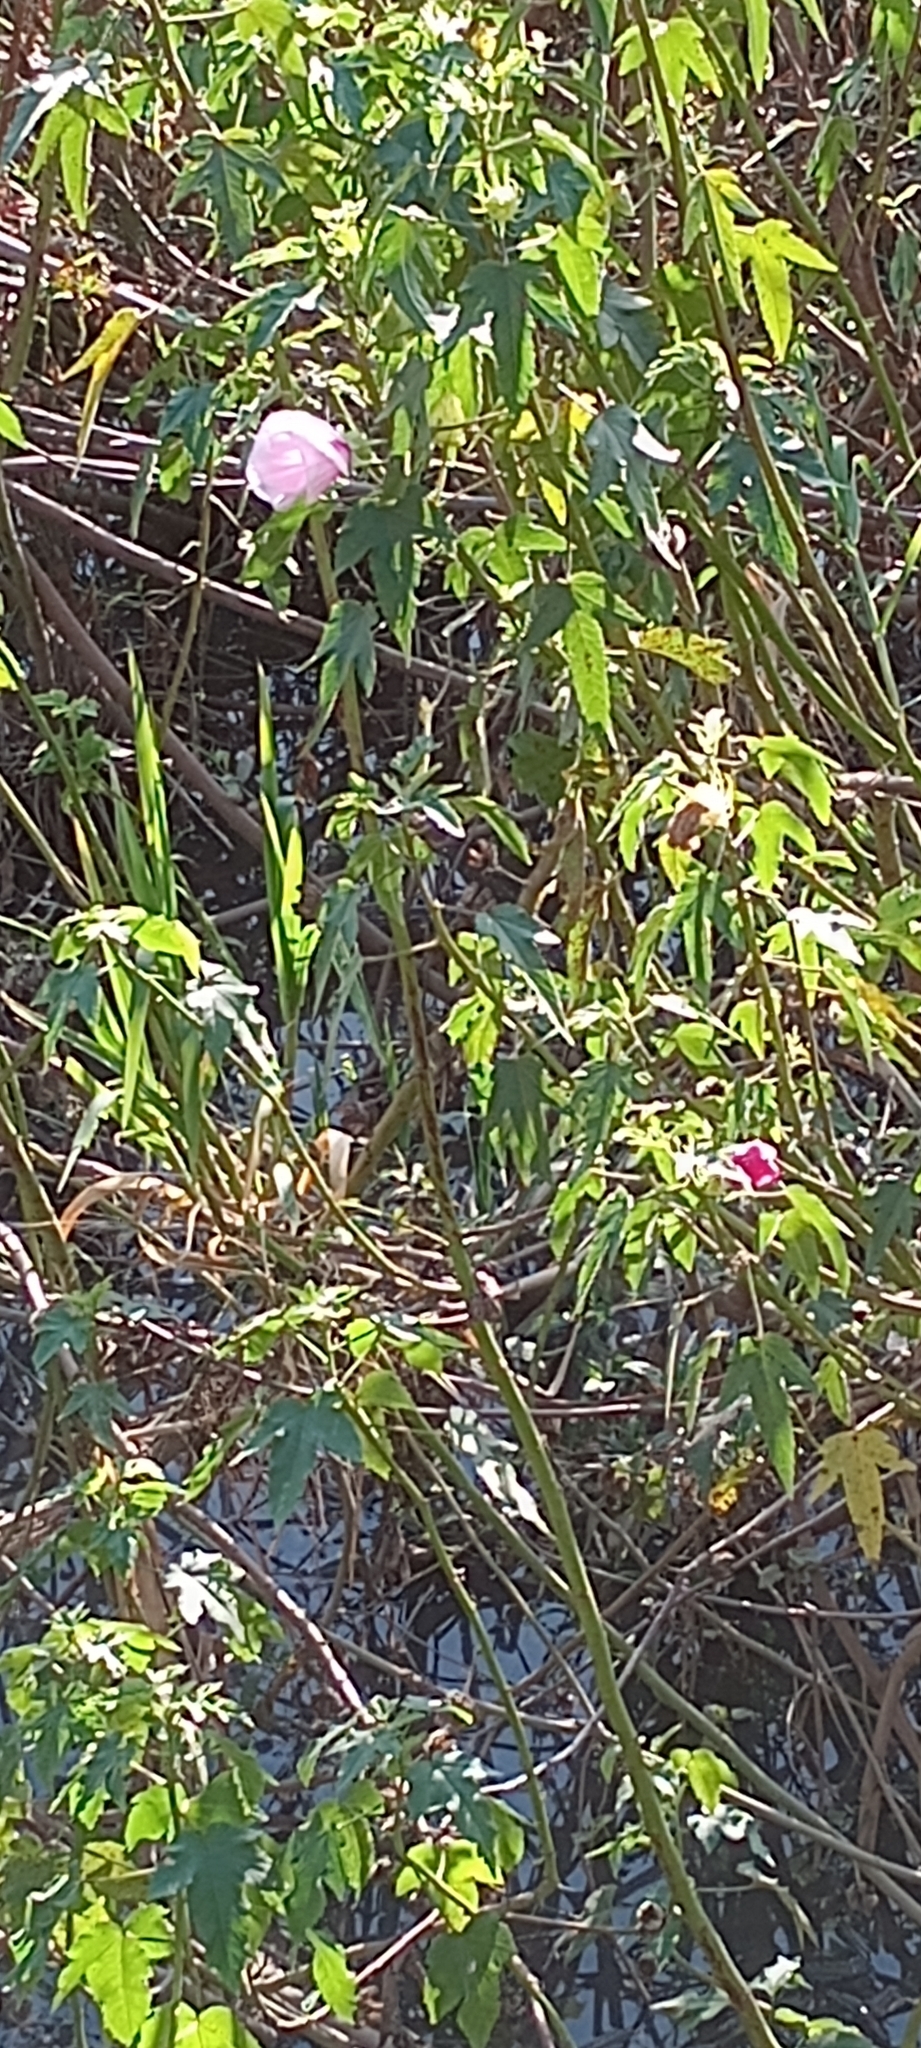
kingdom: Plantae
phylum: Tracheophyta
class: Magnoliopsida
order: Malvales
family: Malvaceae
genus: Hibiscus
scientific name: Hibiscus striatus
